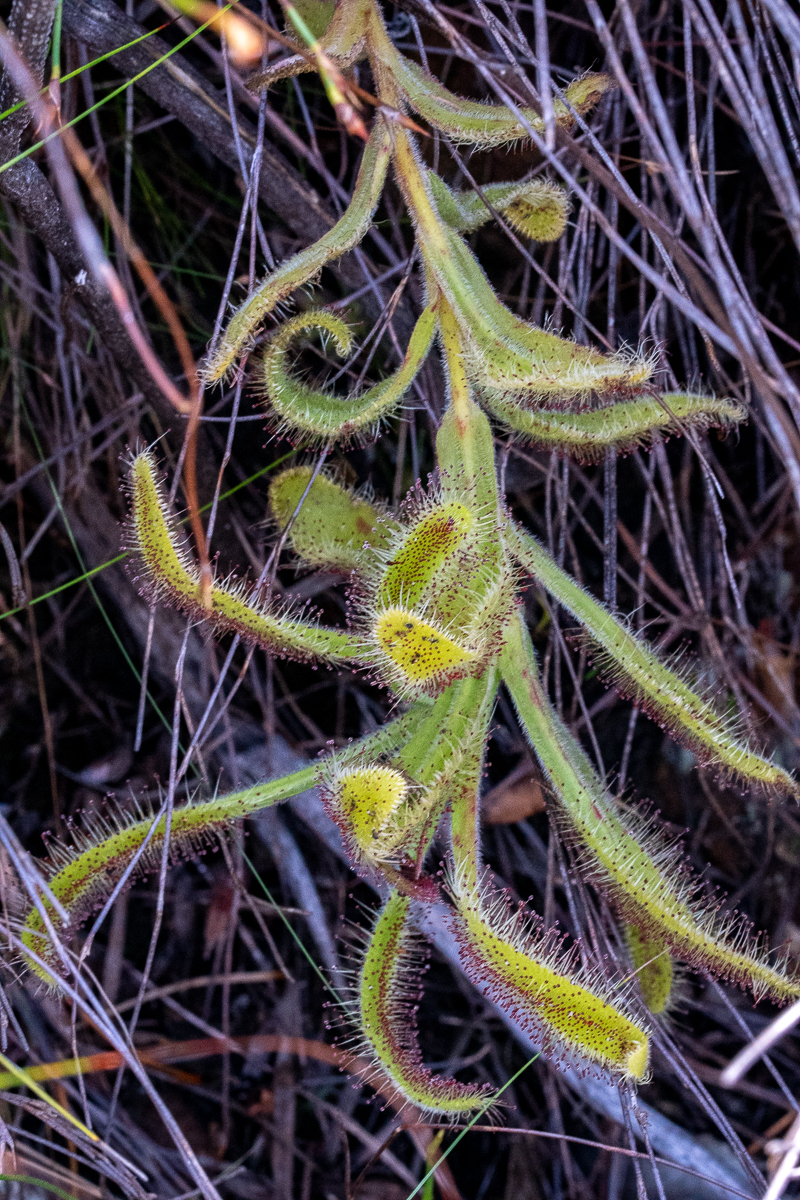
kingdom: Plantae
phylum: Tracheophyta
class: Magnoliopsida
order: Caryophyllales
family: Droseraceae
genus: Drosera
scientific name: Drosera hilaris
